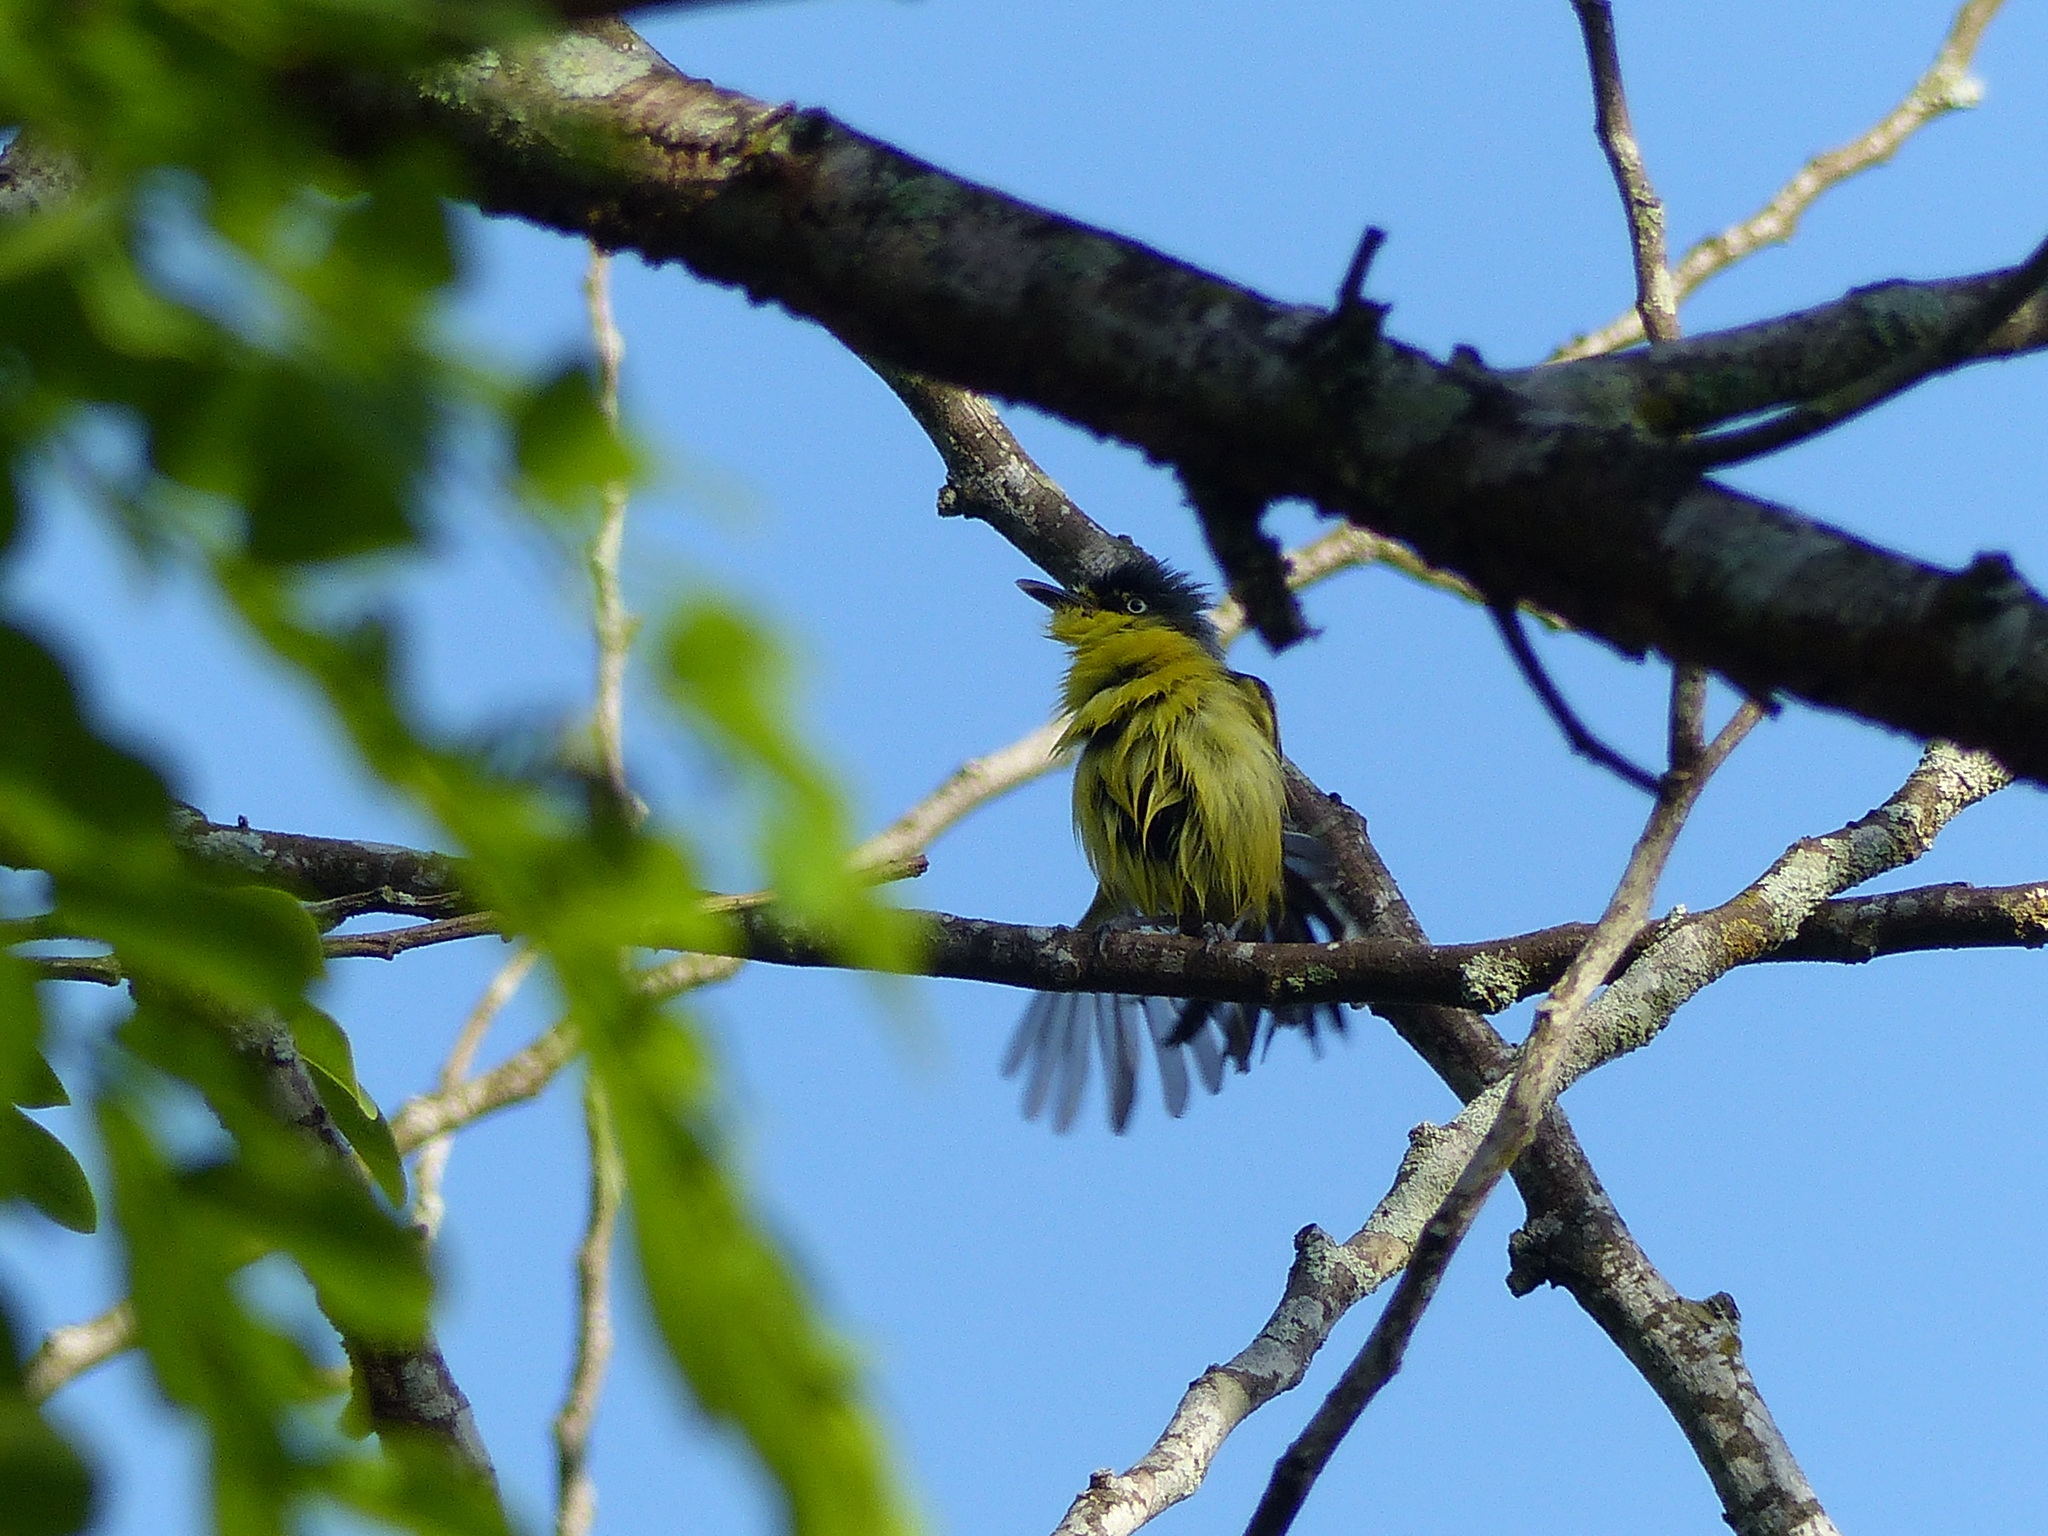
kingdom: Animalia
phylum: Chordata
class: Aves
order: Passeriformes
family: Tyrannidae
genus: Todirostrum
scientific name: Todirostrum cinereum
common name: Common tody-flycatcher
